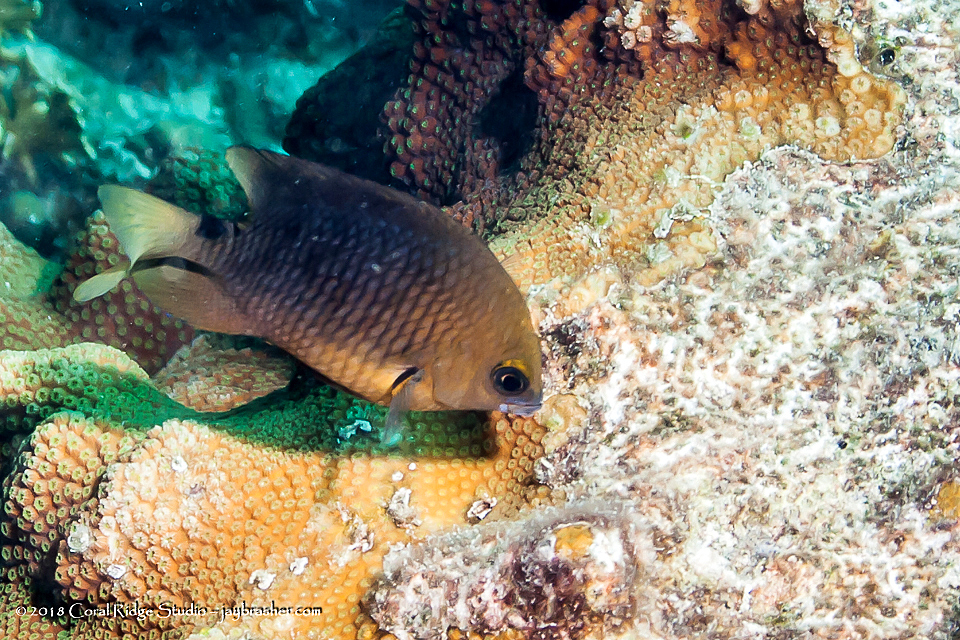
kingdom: Animalia
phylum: Chordata
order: Perciformes
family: Pomacentridae
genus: Stegastes
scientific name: Stegastes planifrons
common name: Threespot damselfish
